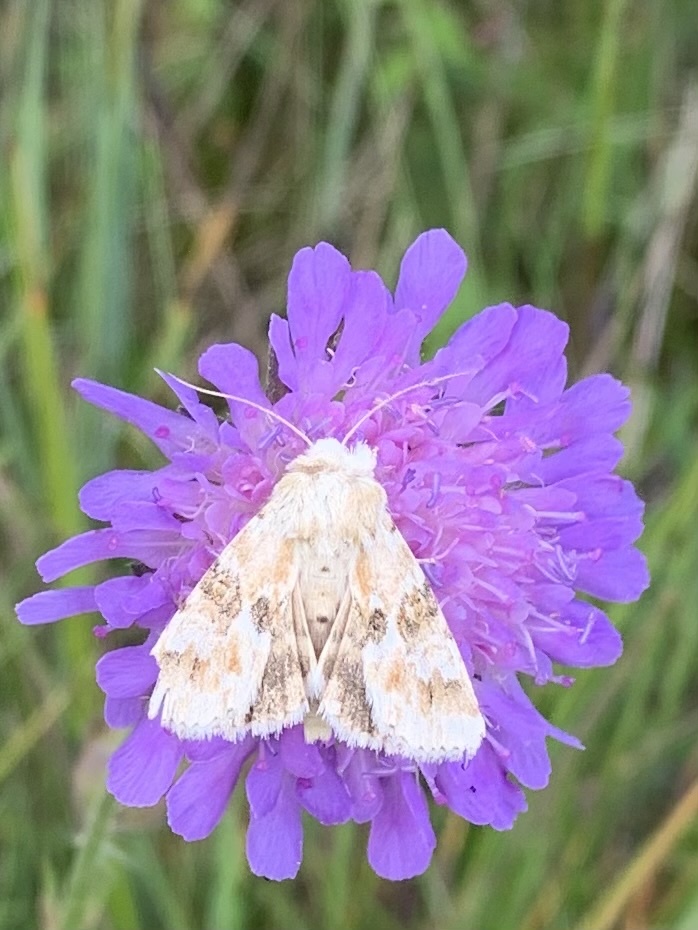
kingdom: Animalia
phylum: Arthropoda
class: Insecta
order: Lepidoptera
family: Noctuidae
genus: Eremobia
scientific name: Eremobia ochroleuca
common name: Dusky sallow
